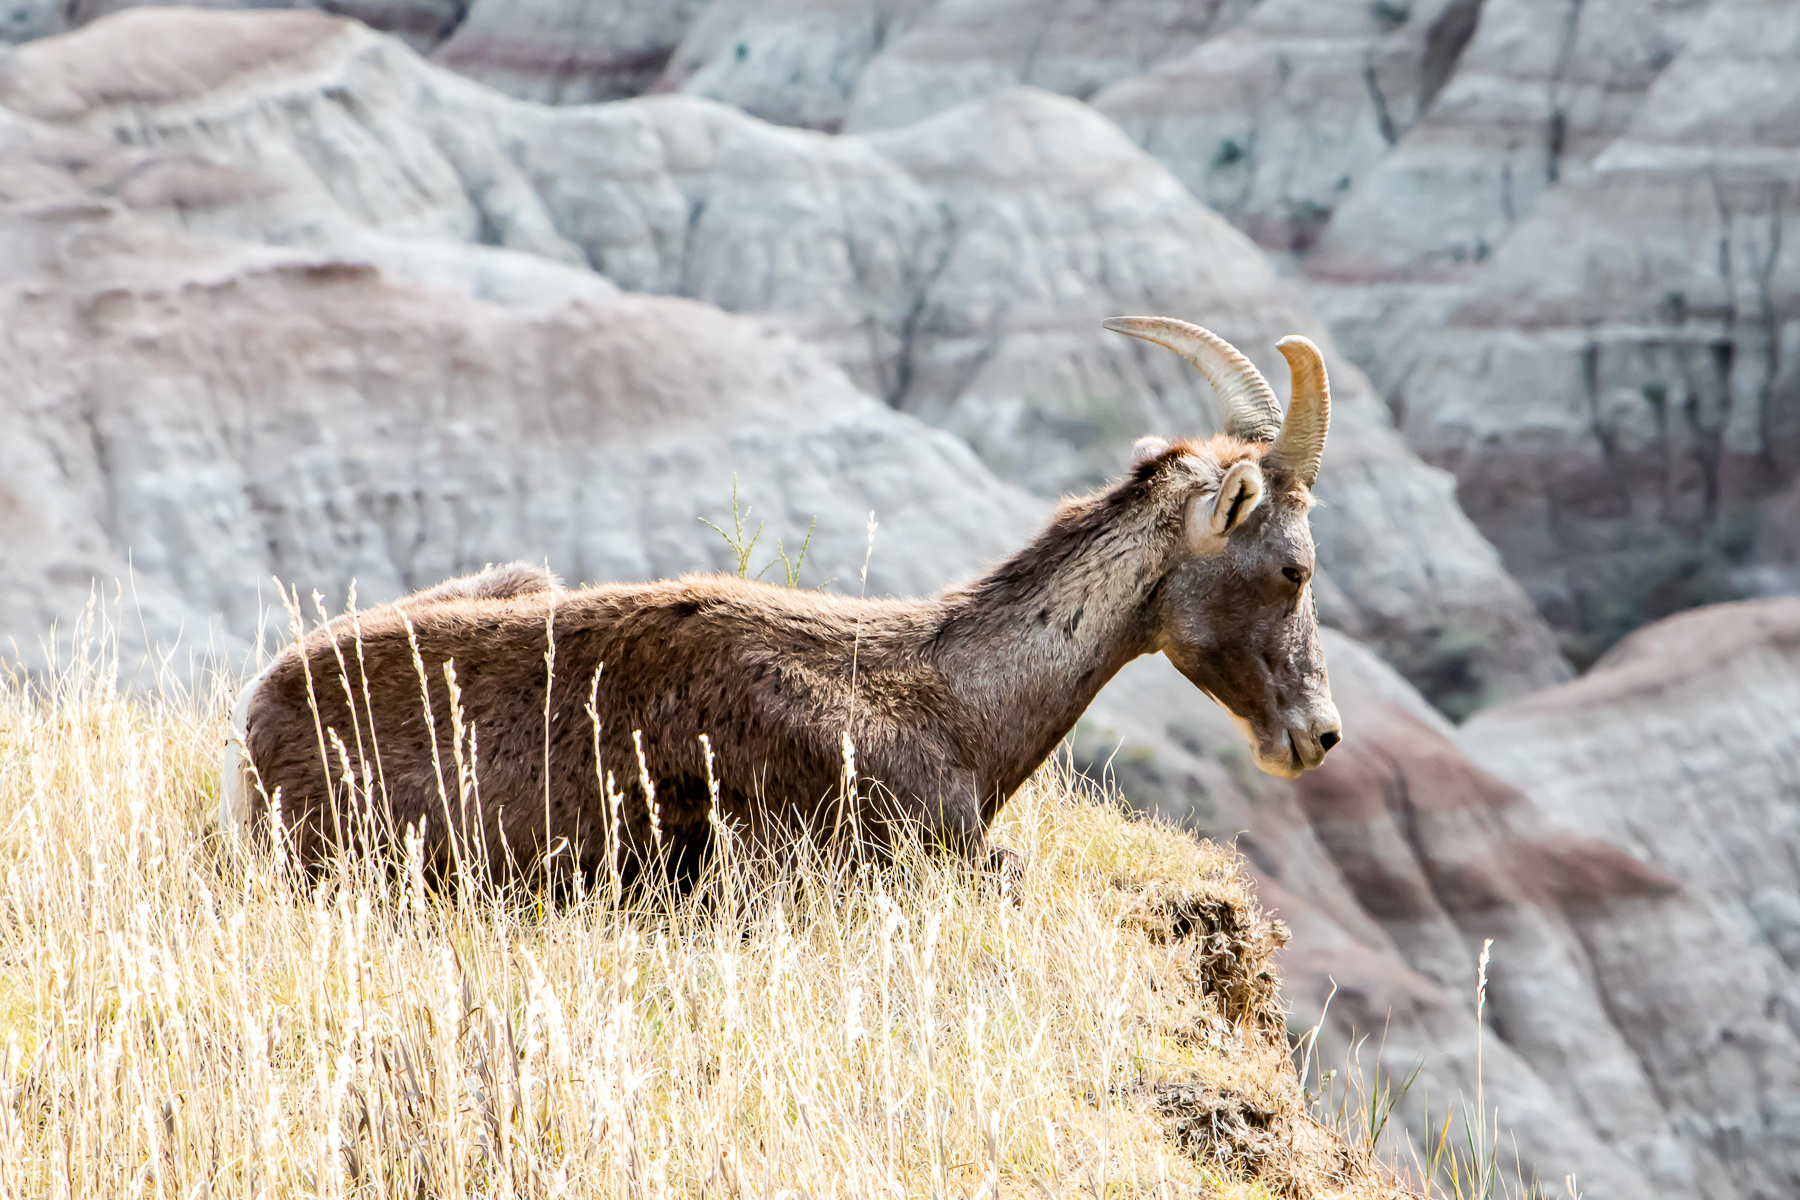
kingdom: Animalia
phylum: Chordata
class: Mammalia
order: Artiodactyla
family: Bovidae
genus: Ovis
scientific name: Ovis canadensis
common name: Bighorn sheep
